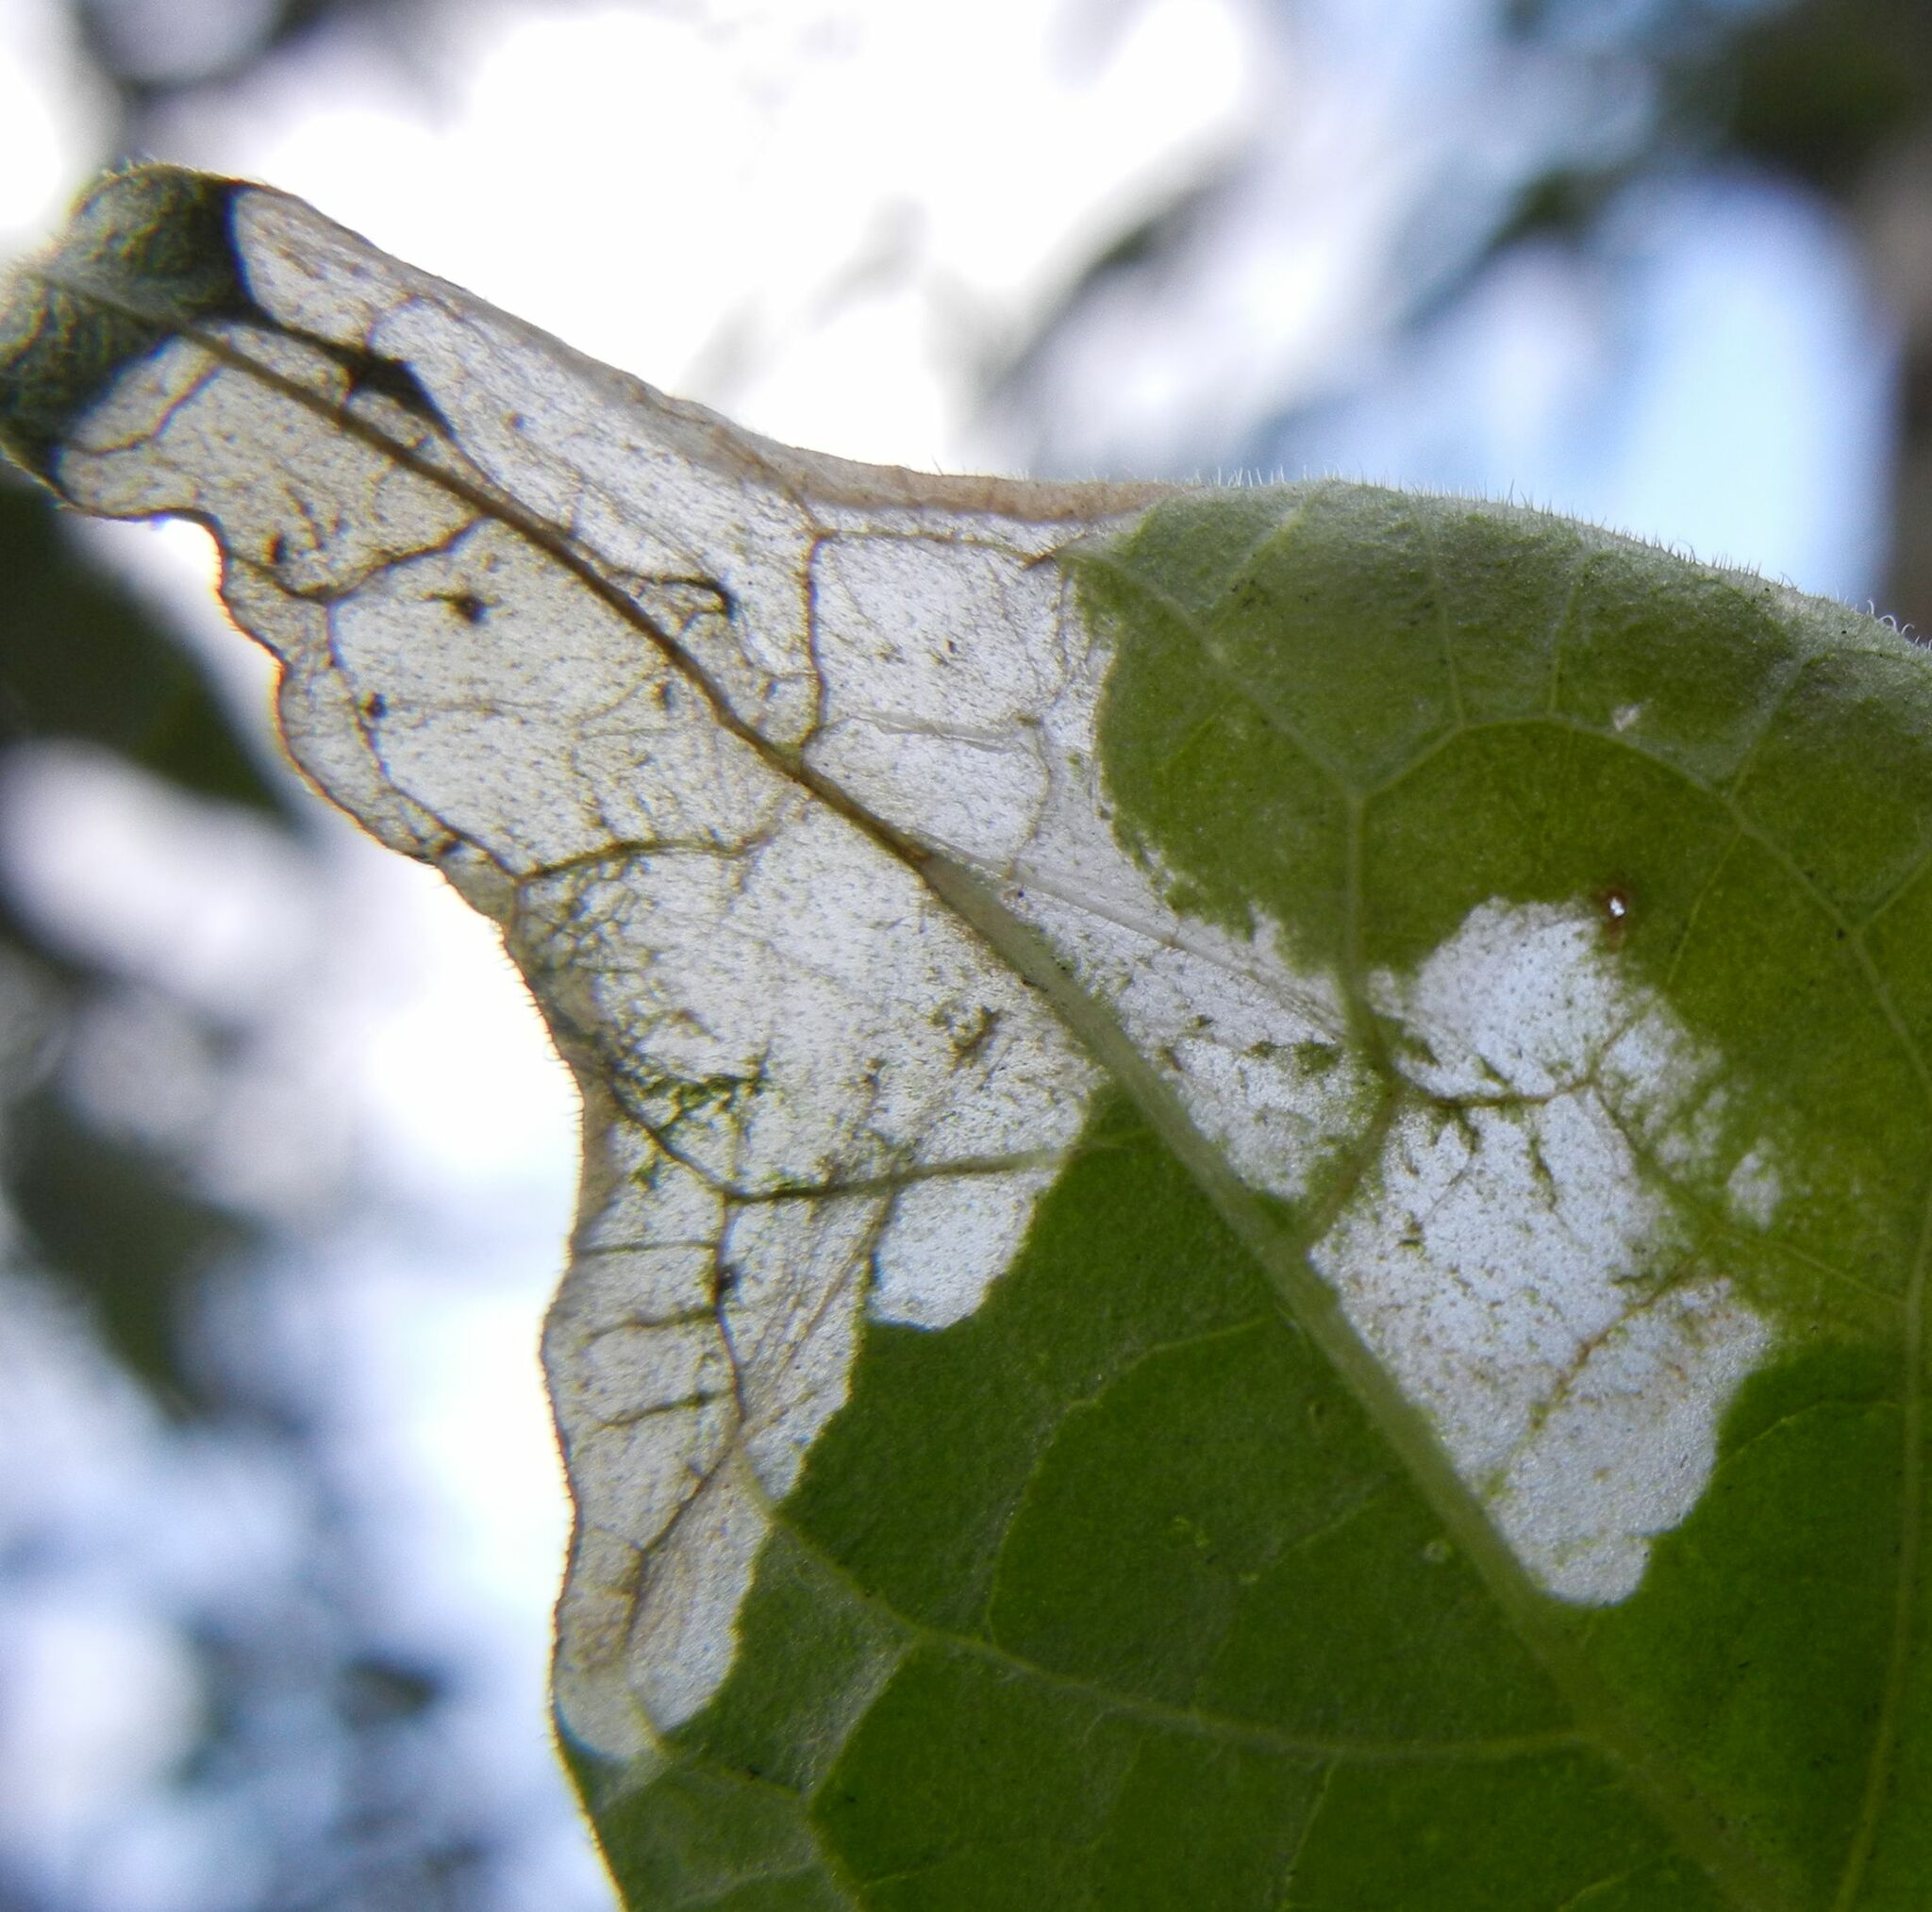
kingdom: Animalia
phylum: Arthropoda
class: Insecta
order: Lepidoptera
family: Glyphipterigidae
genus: Acrolepia
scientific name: Acrolepia pygmaeana
